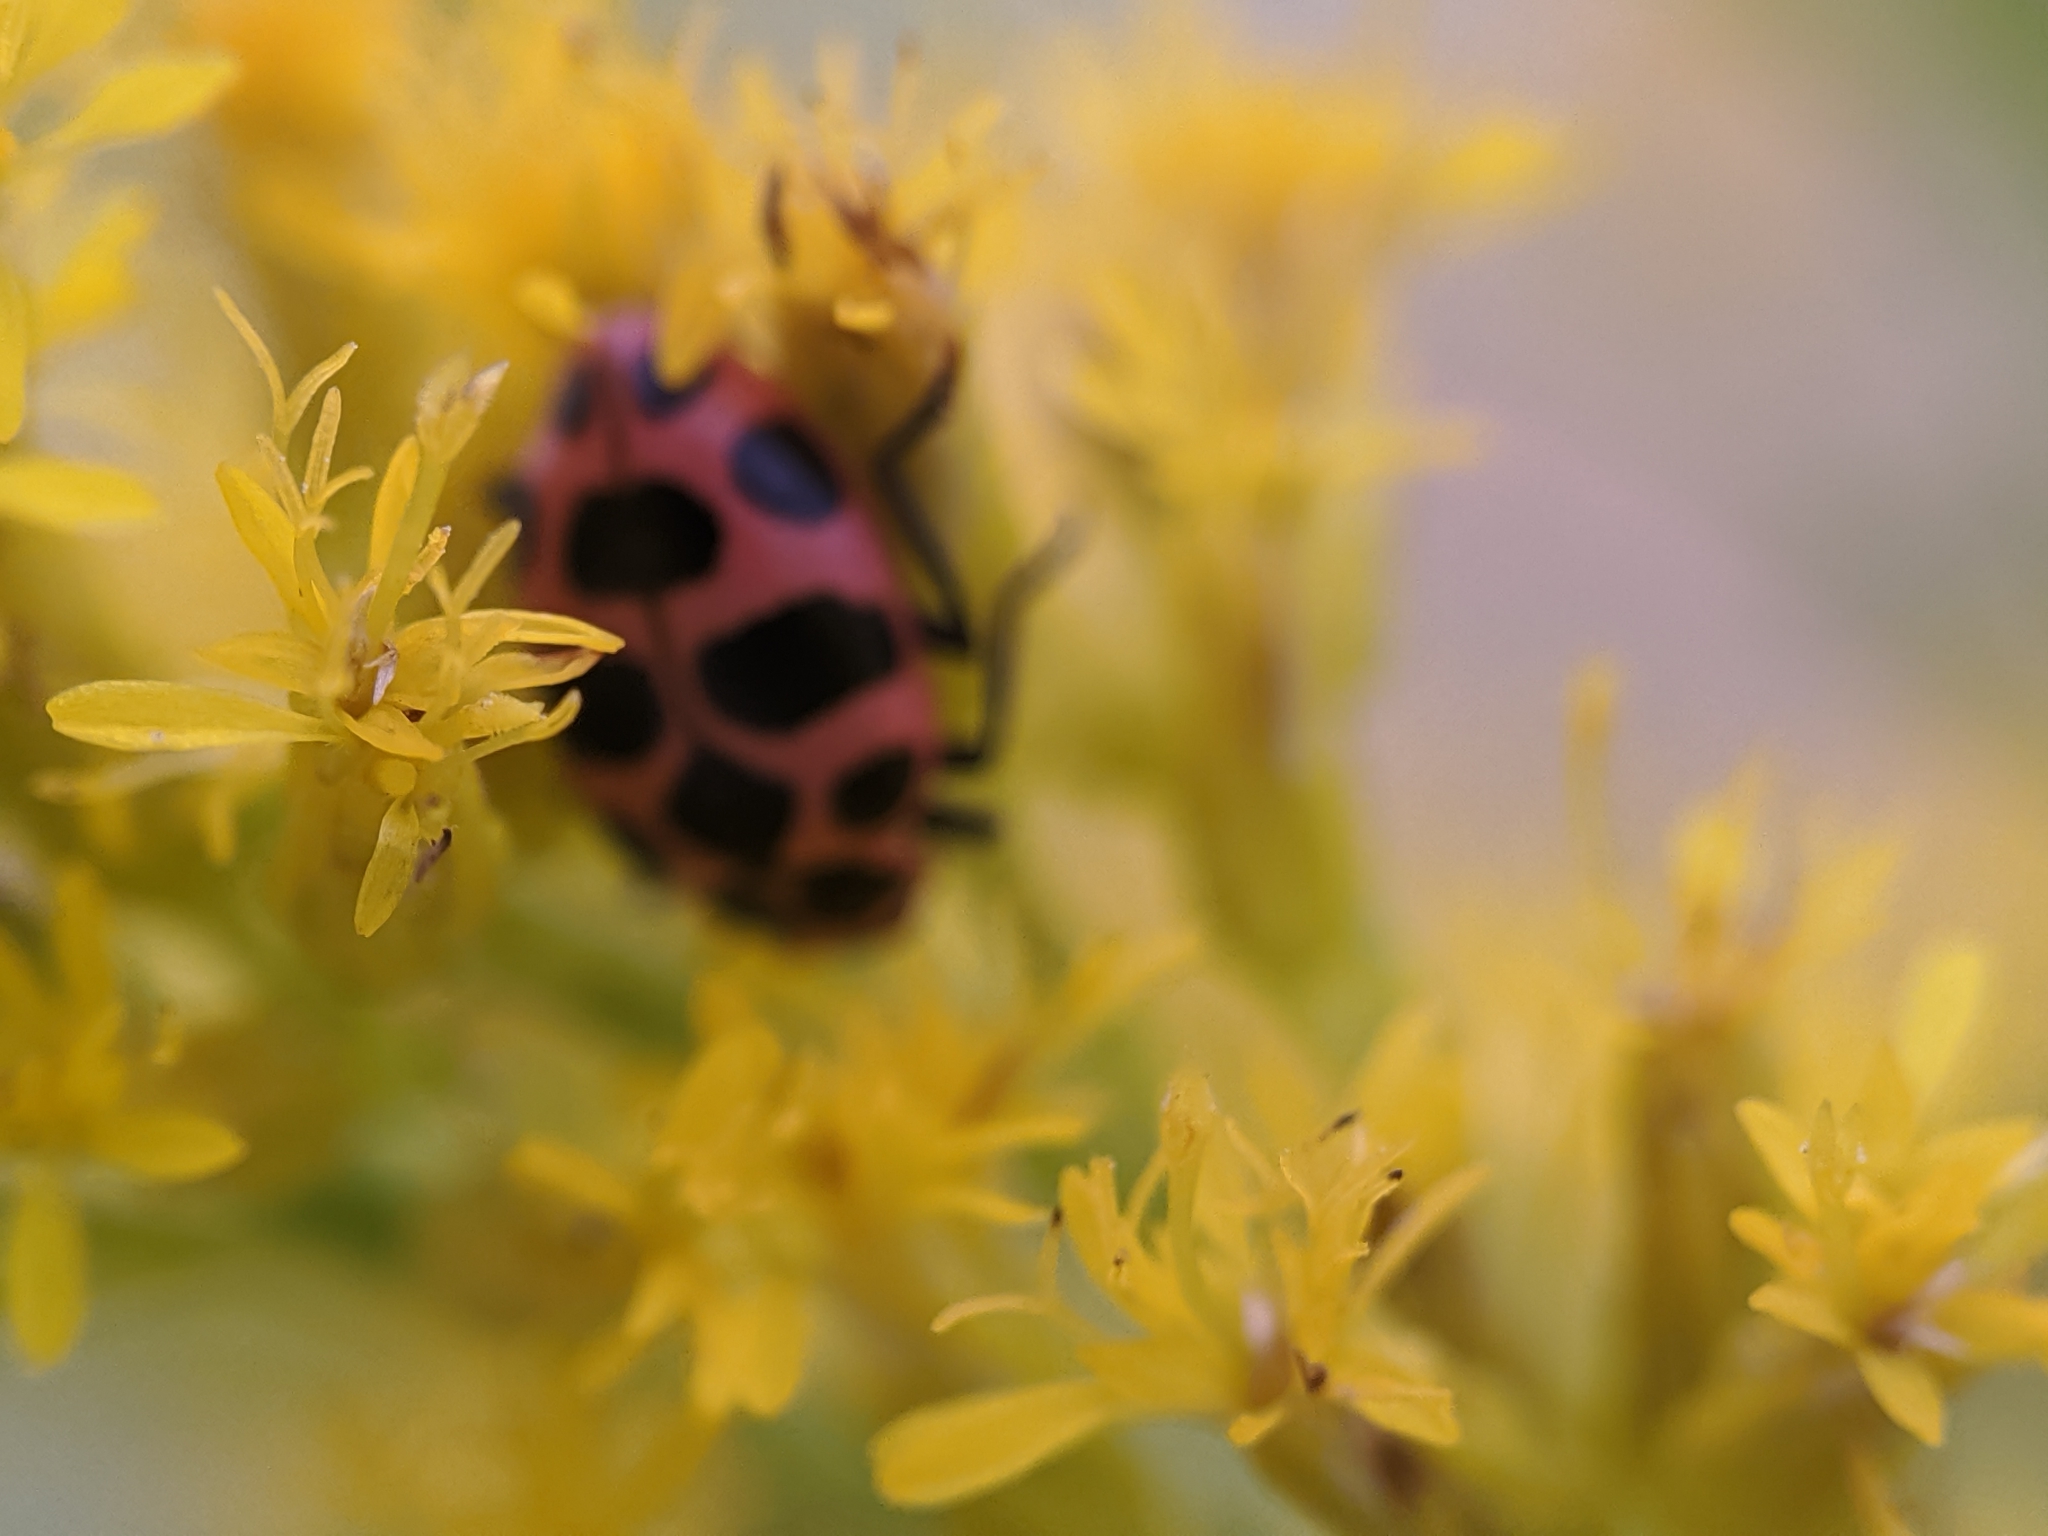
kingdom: Animalia
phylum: Arthropoda
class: Insecta
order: Coleoptera
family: Coccinellidae
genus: Coleomegilla
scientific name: Coleomegilla maculata
